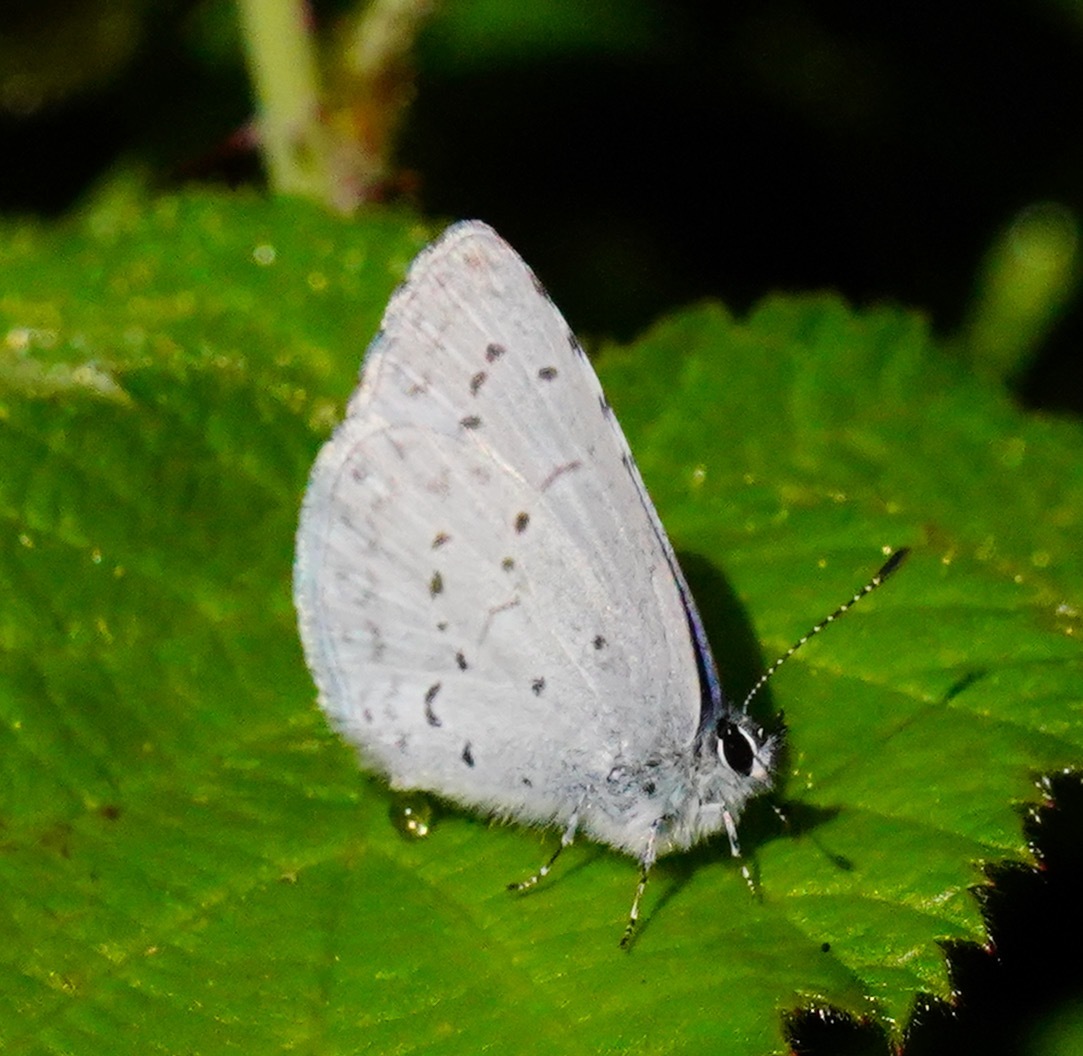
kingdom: Animalia
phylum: Arthropoda
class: Insecta
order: Lepidoptera
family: Lycaenidae
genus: Celastrina
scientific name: Celastrina ladon
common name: Spring azure
